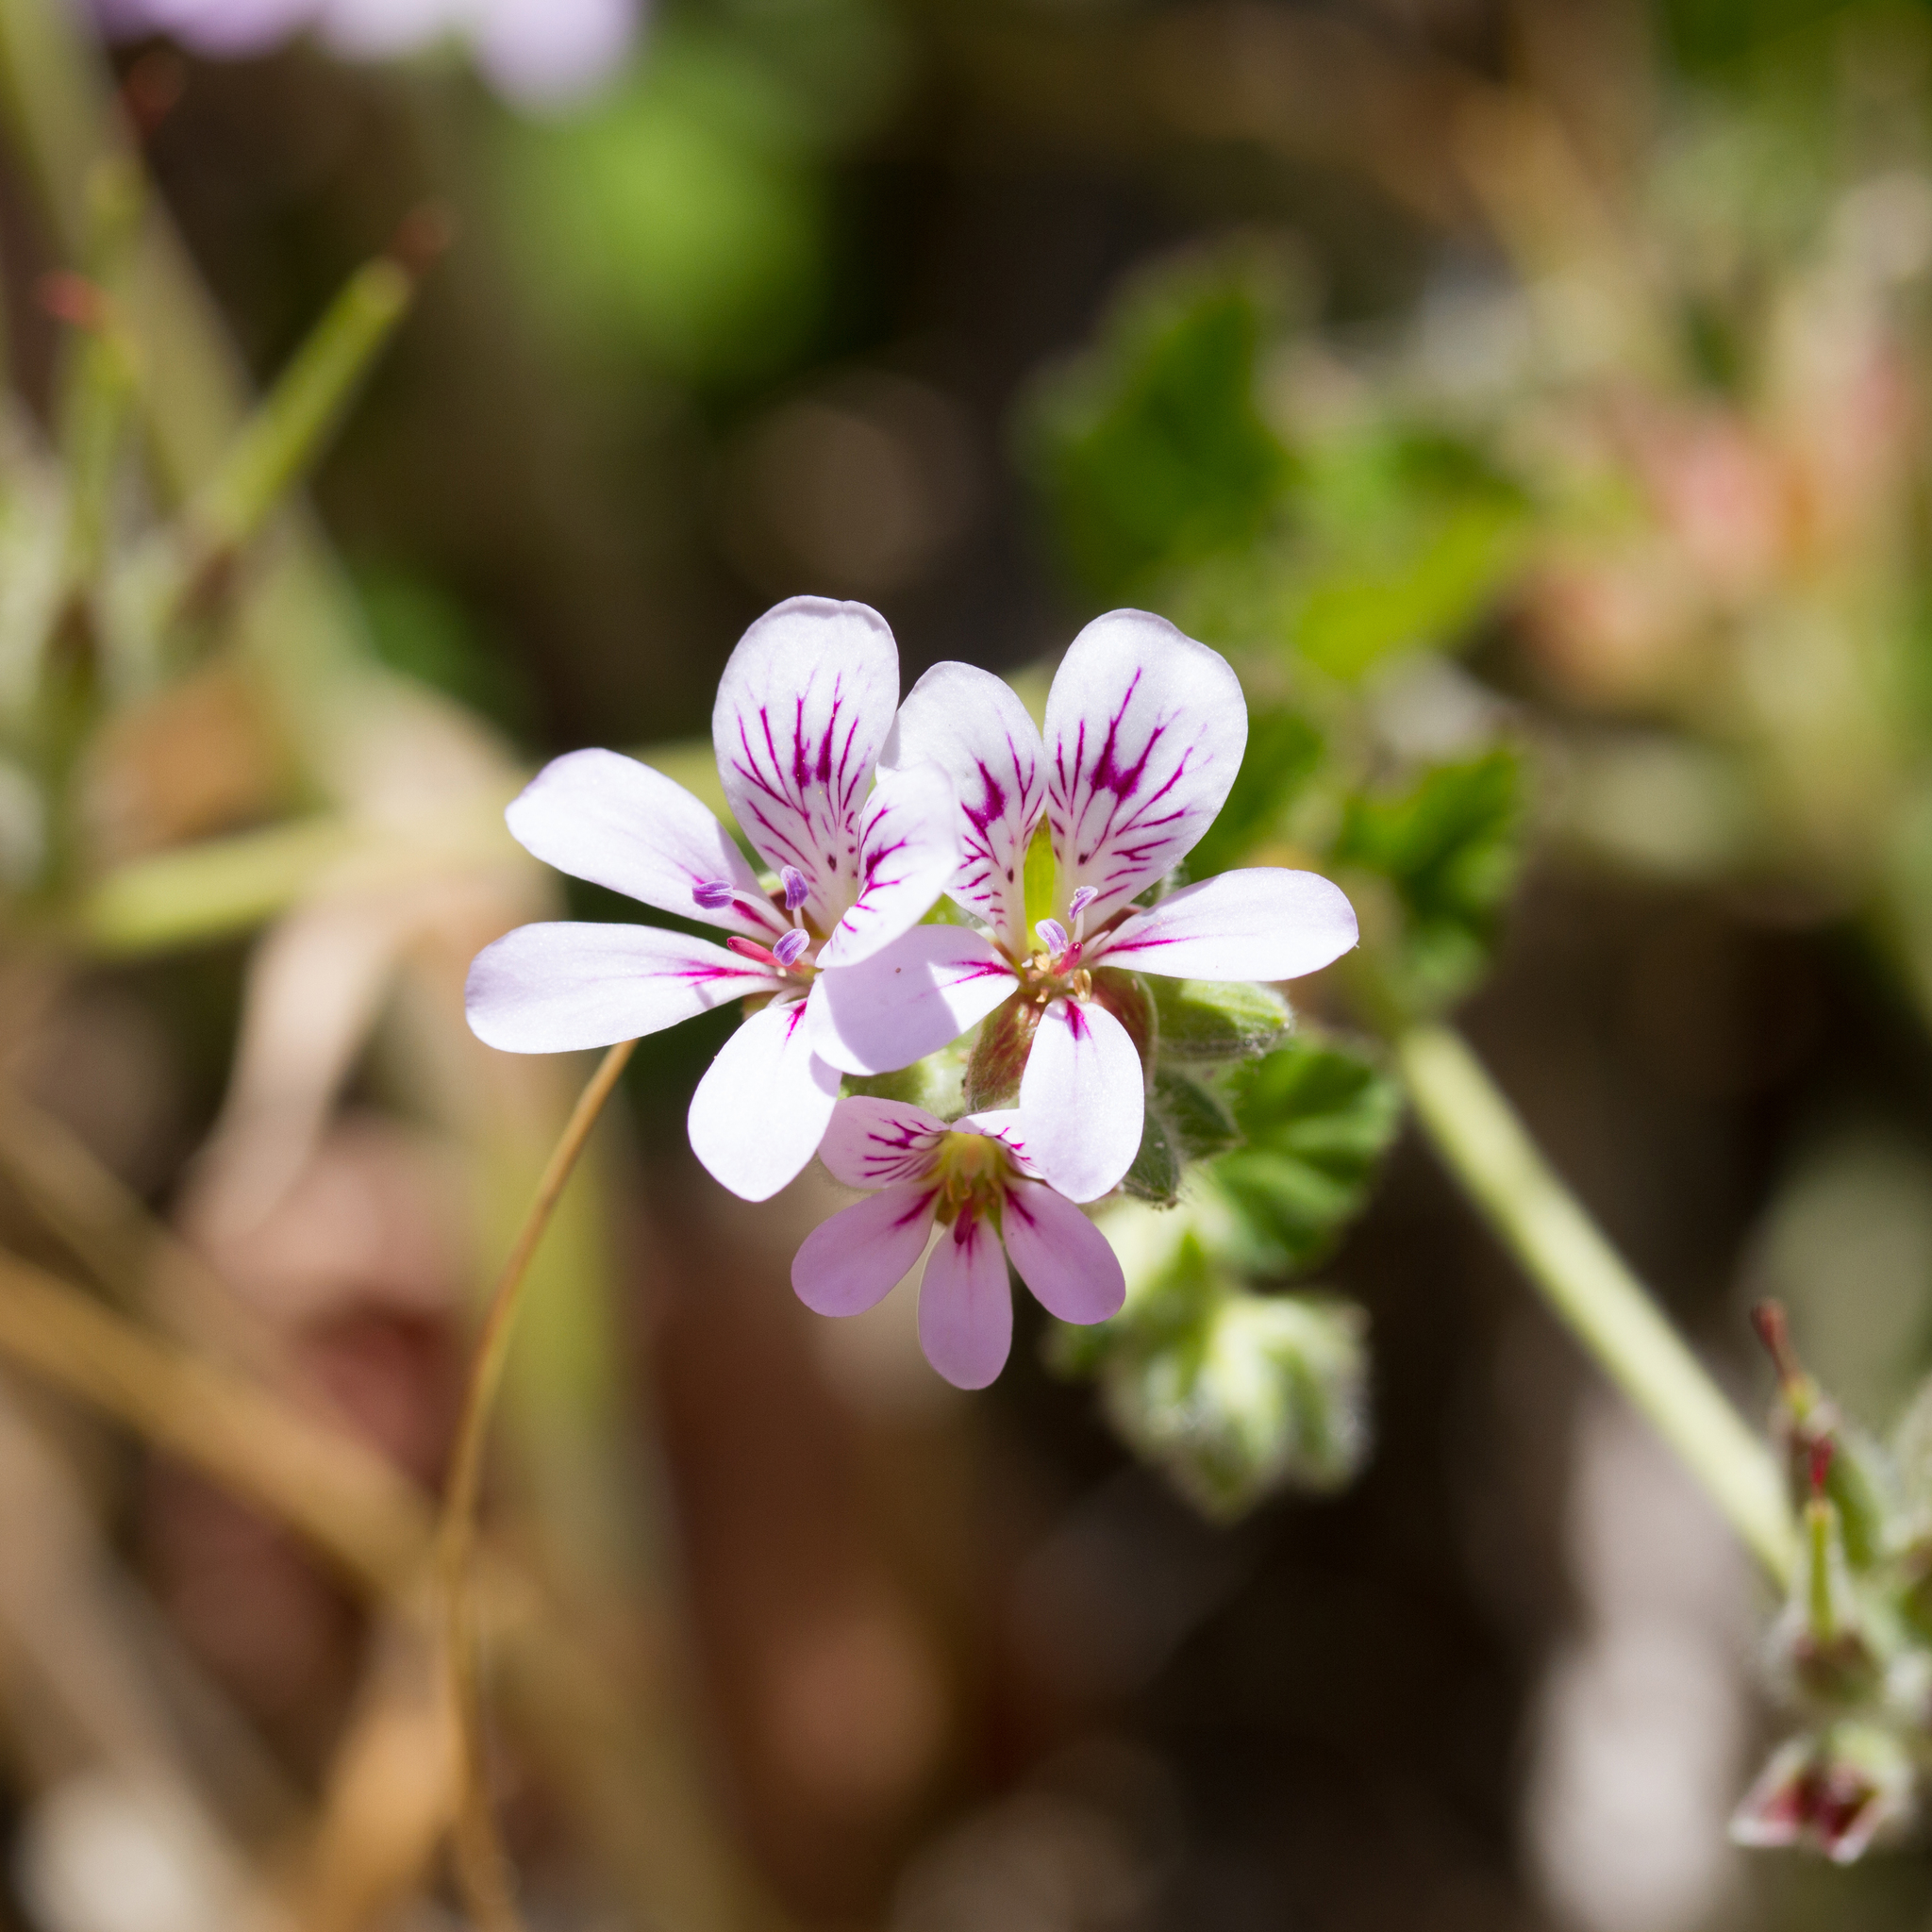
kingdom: Plantae
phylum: Tracheophyta
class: Magnoliopsida
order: Geraniales
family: Geraniaceae
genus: Pelargonium
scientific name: Pelargonium australe
